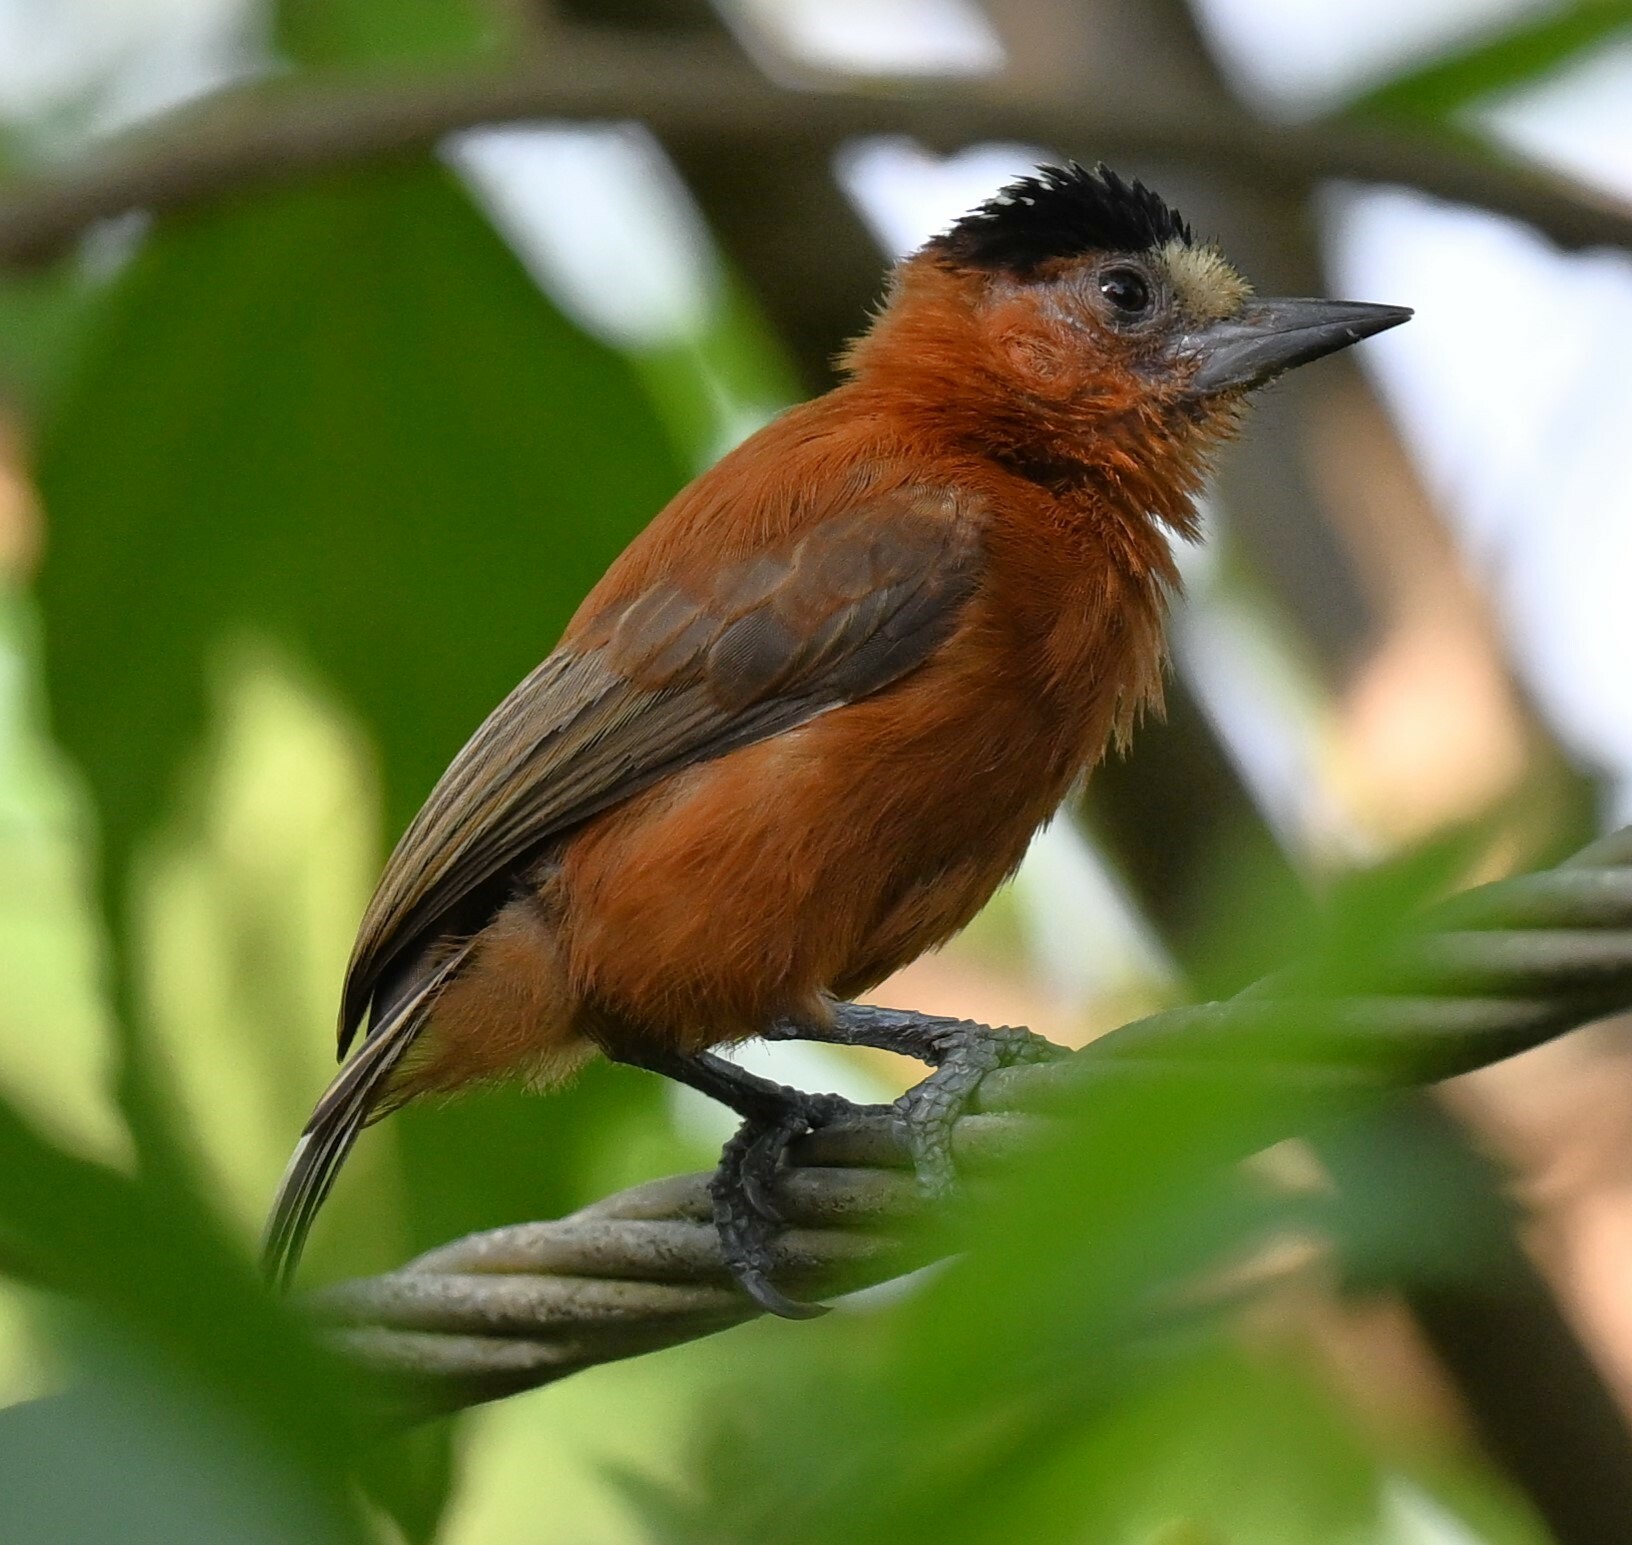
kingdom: Animalia
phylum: Chordata
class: Aves
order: Piciformes
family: Picidae
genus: Picumnus
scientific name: Picumnus cinnamomeus
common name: Chestnut piculet
